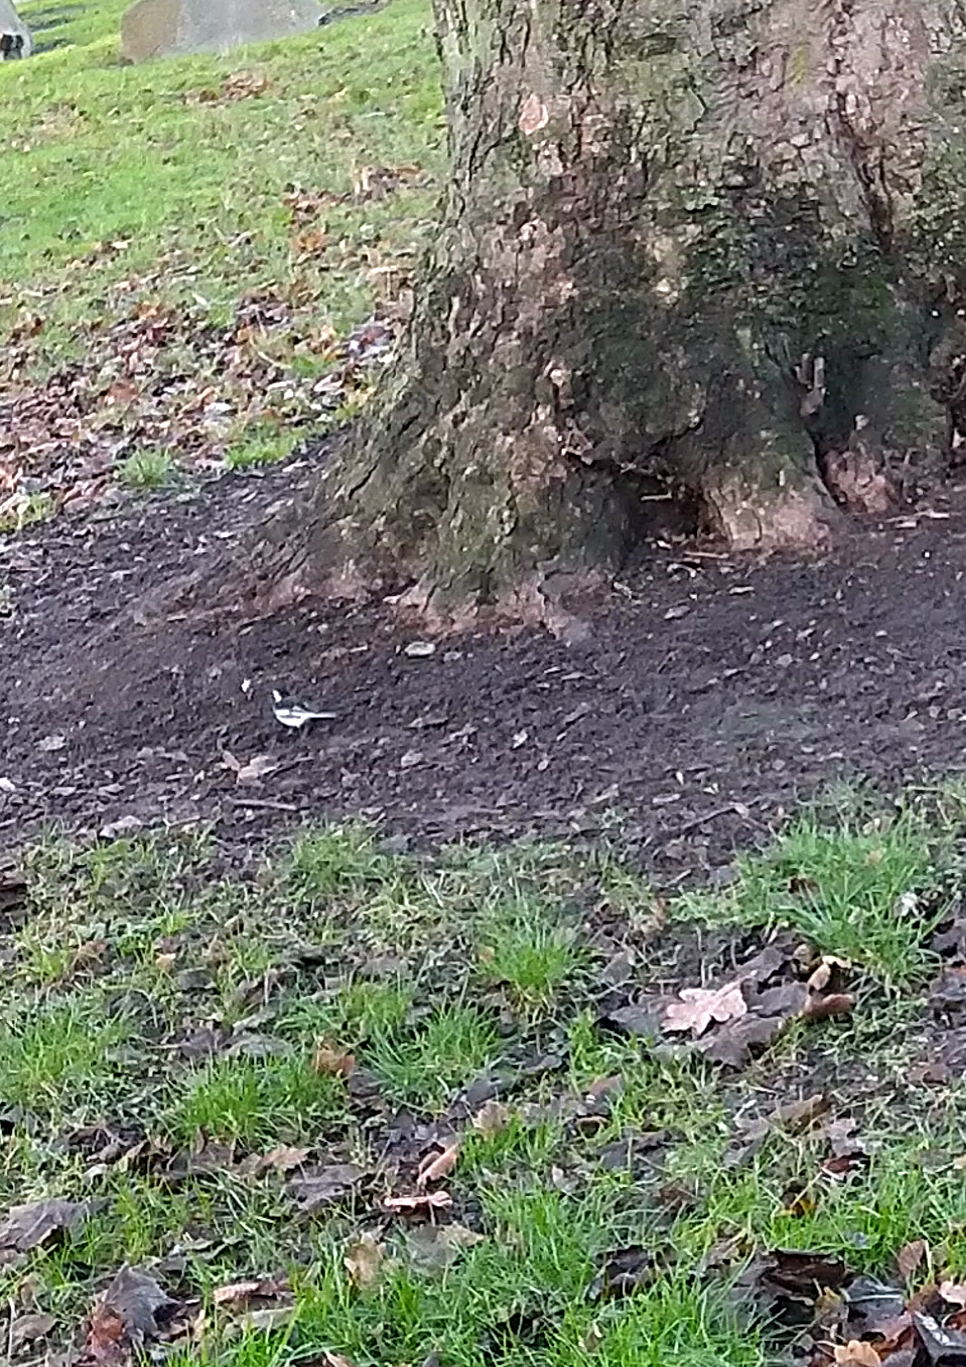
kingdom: Animalia
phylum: Chordata
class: Aves
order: Passeriformes
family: Motacillidae
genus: Motacilla
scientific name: Motacilla alba
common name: White wagtail
